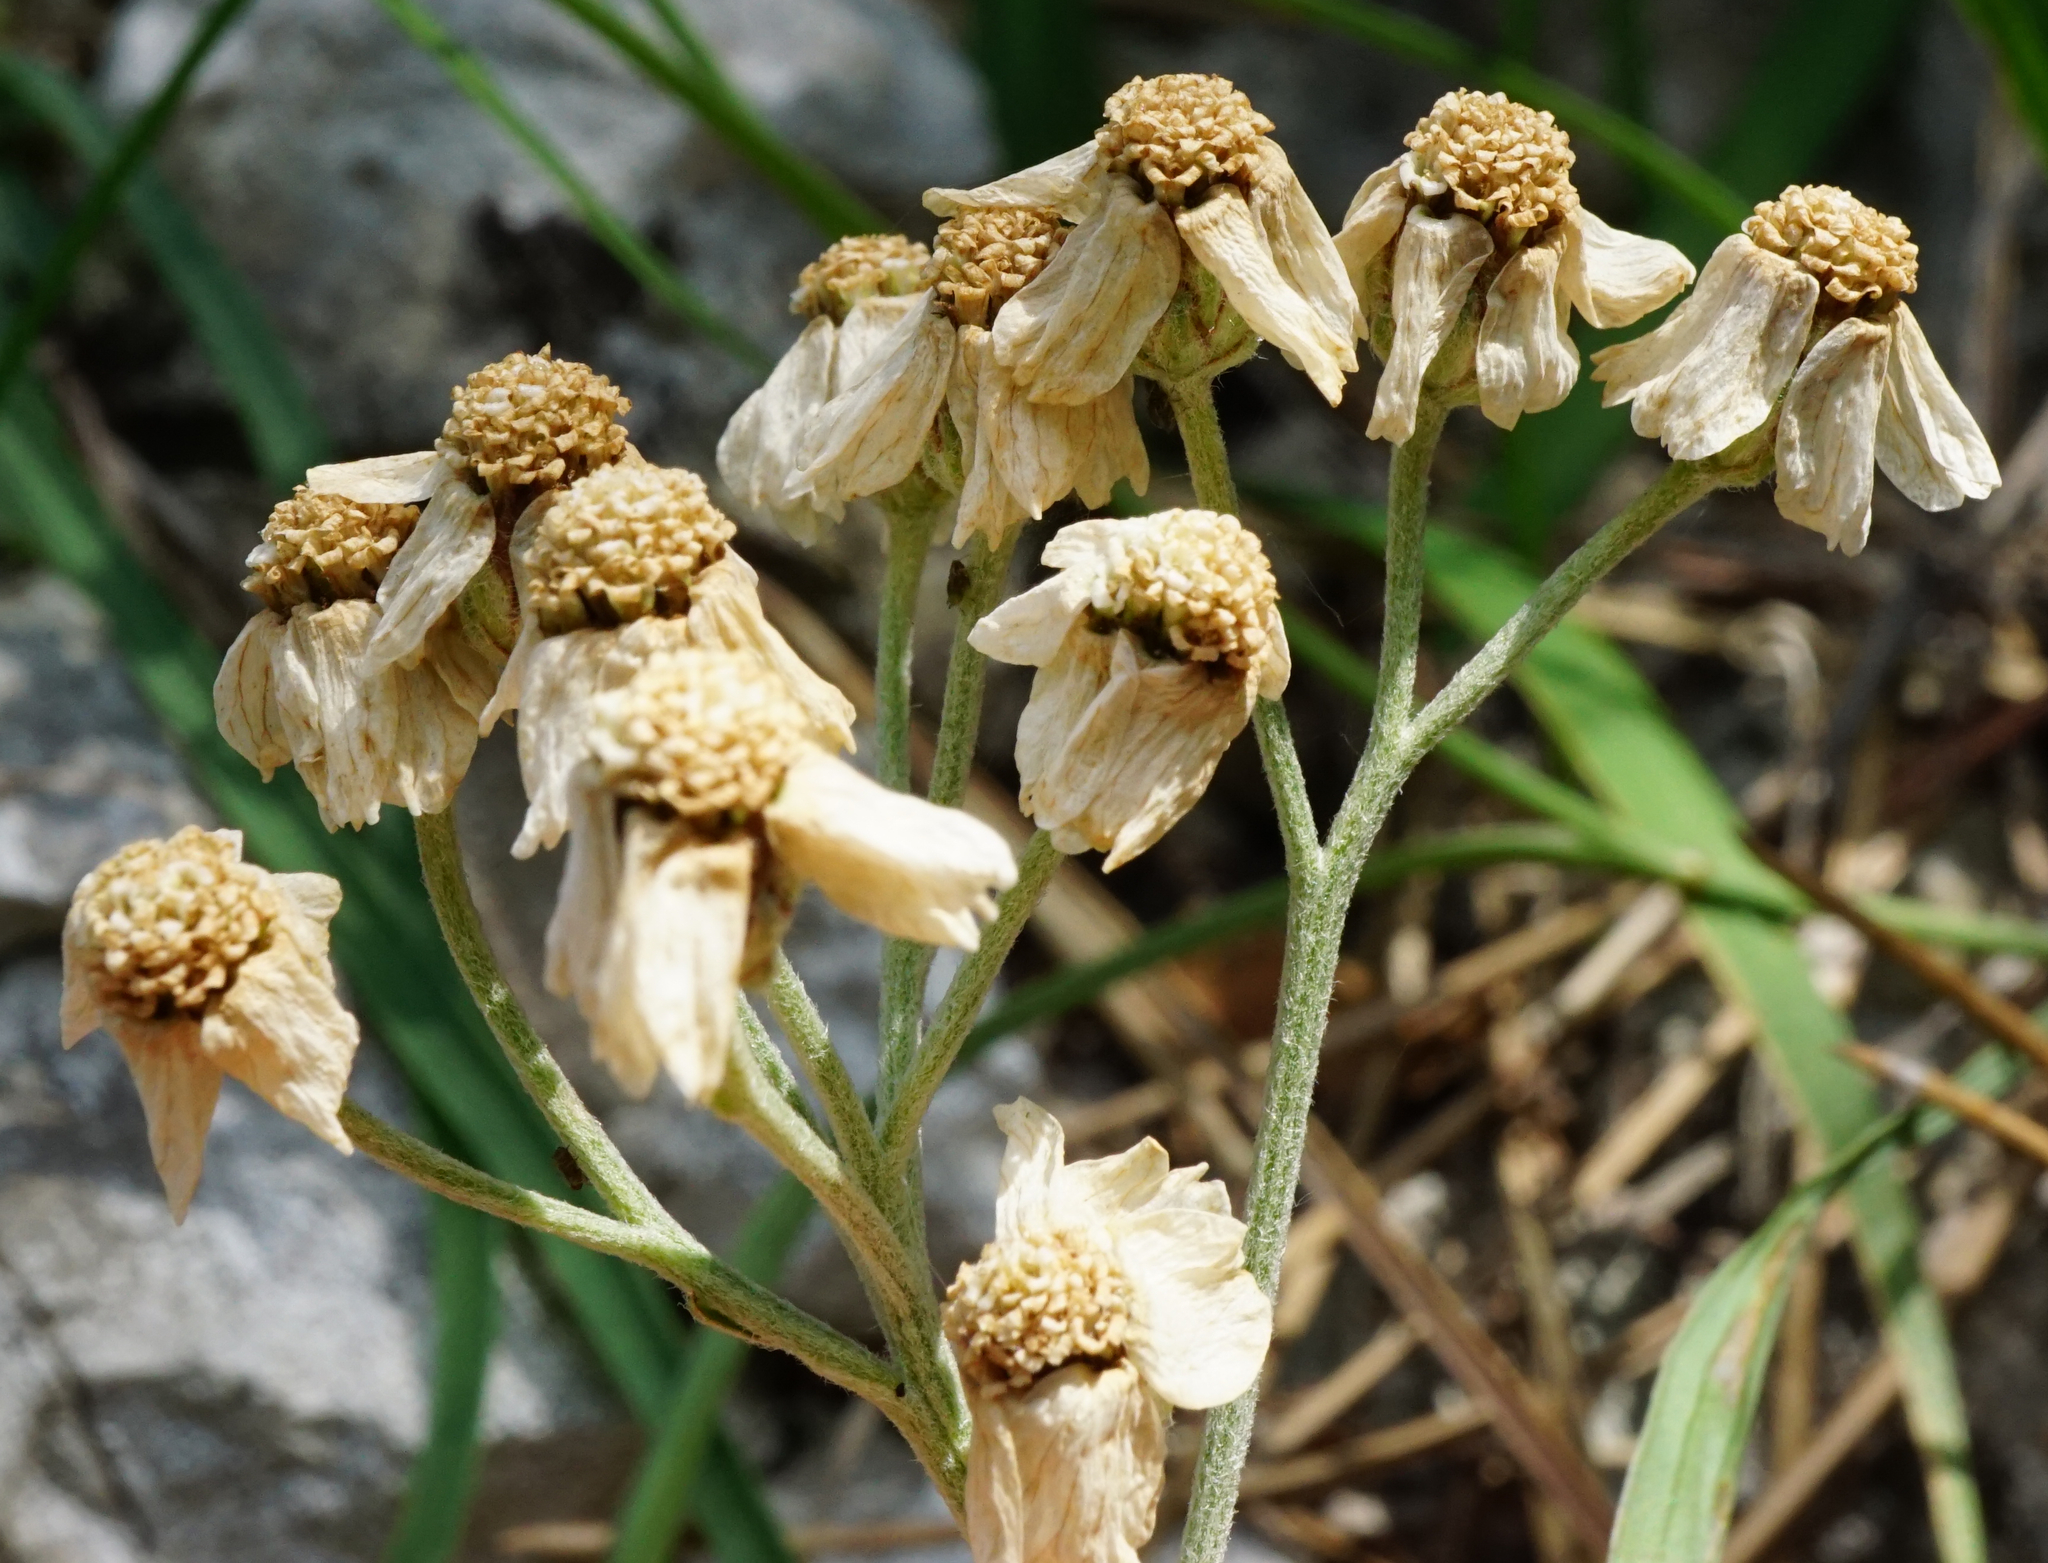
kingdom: Plantae
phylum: Tracheophyta
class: Magnoliopsida
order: Asterales
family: Asteraceae
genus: Achillea
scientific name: Achillea clavennae
